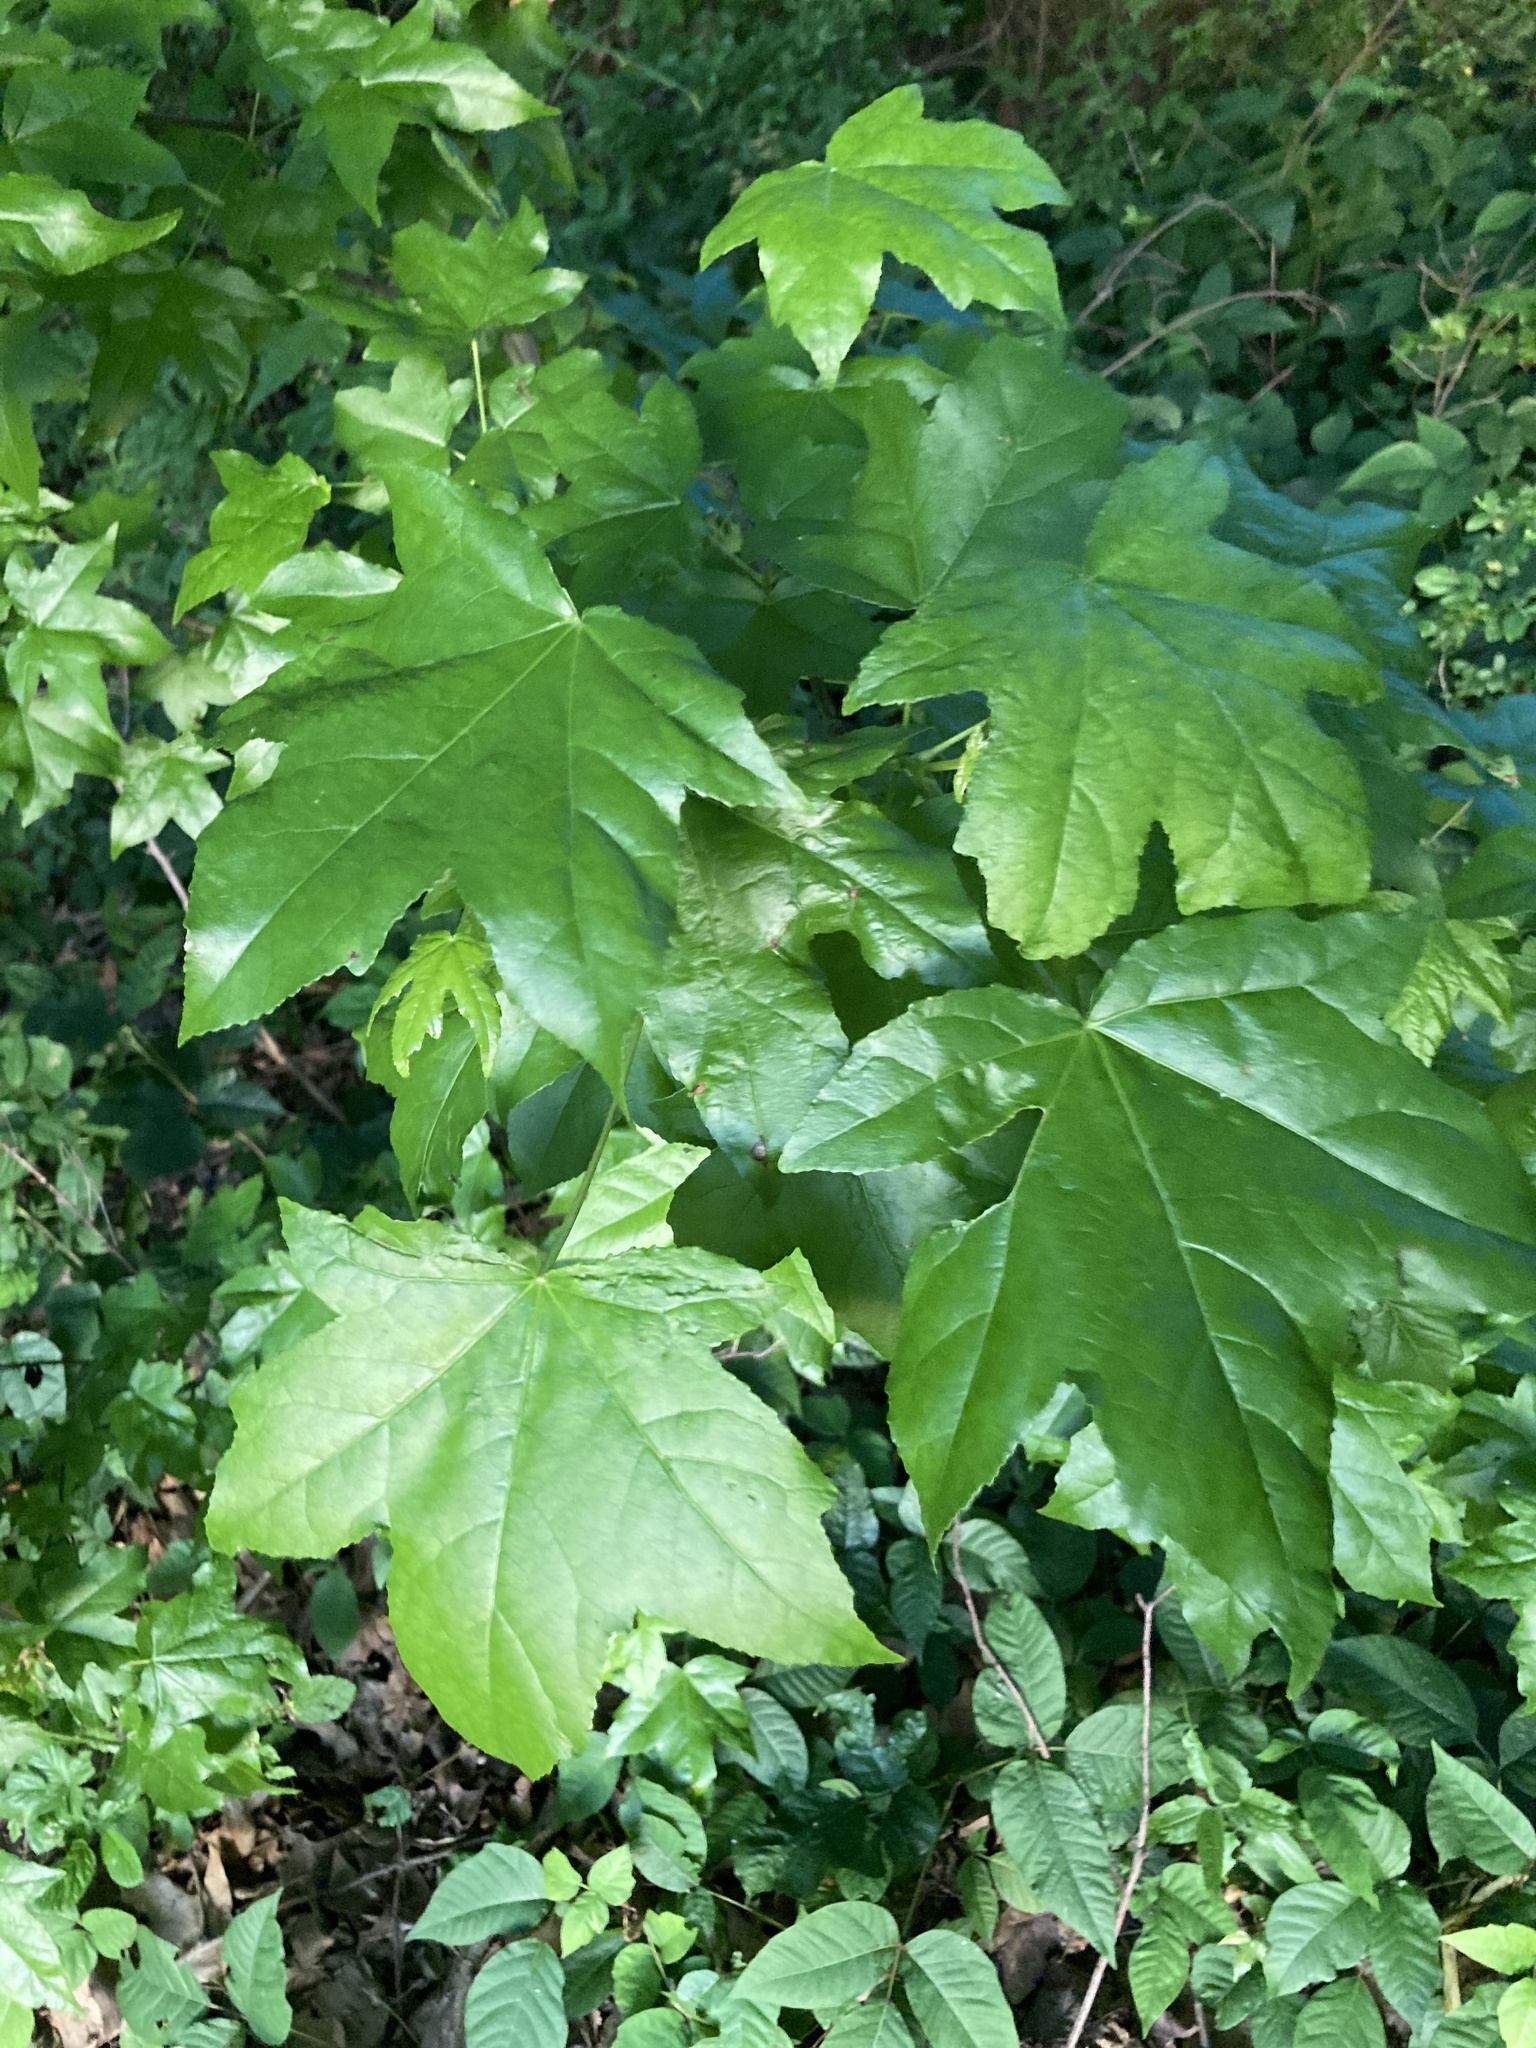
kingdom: Plantae
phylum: Tracheophyta
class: Magnoliopsida
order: Saxifragales
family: Altingiaceae
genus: Liquidambar
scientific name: Liquidambar styraciflua
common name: Sweet gum
